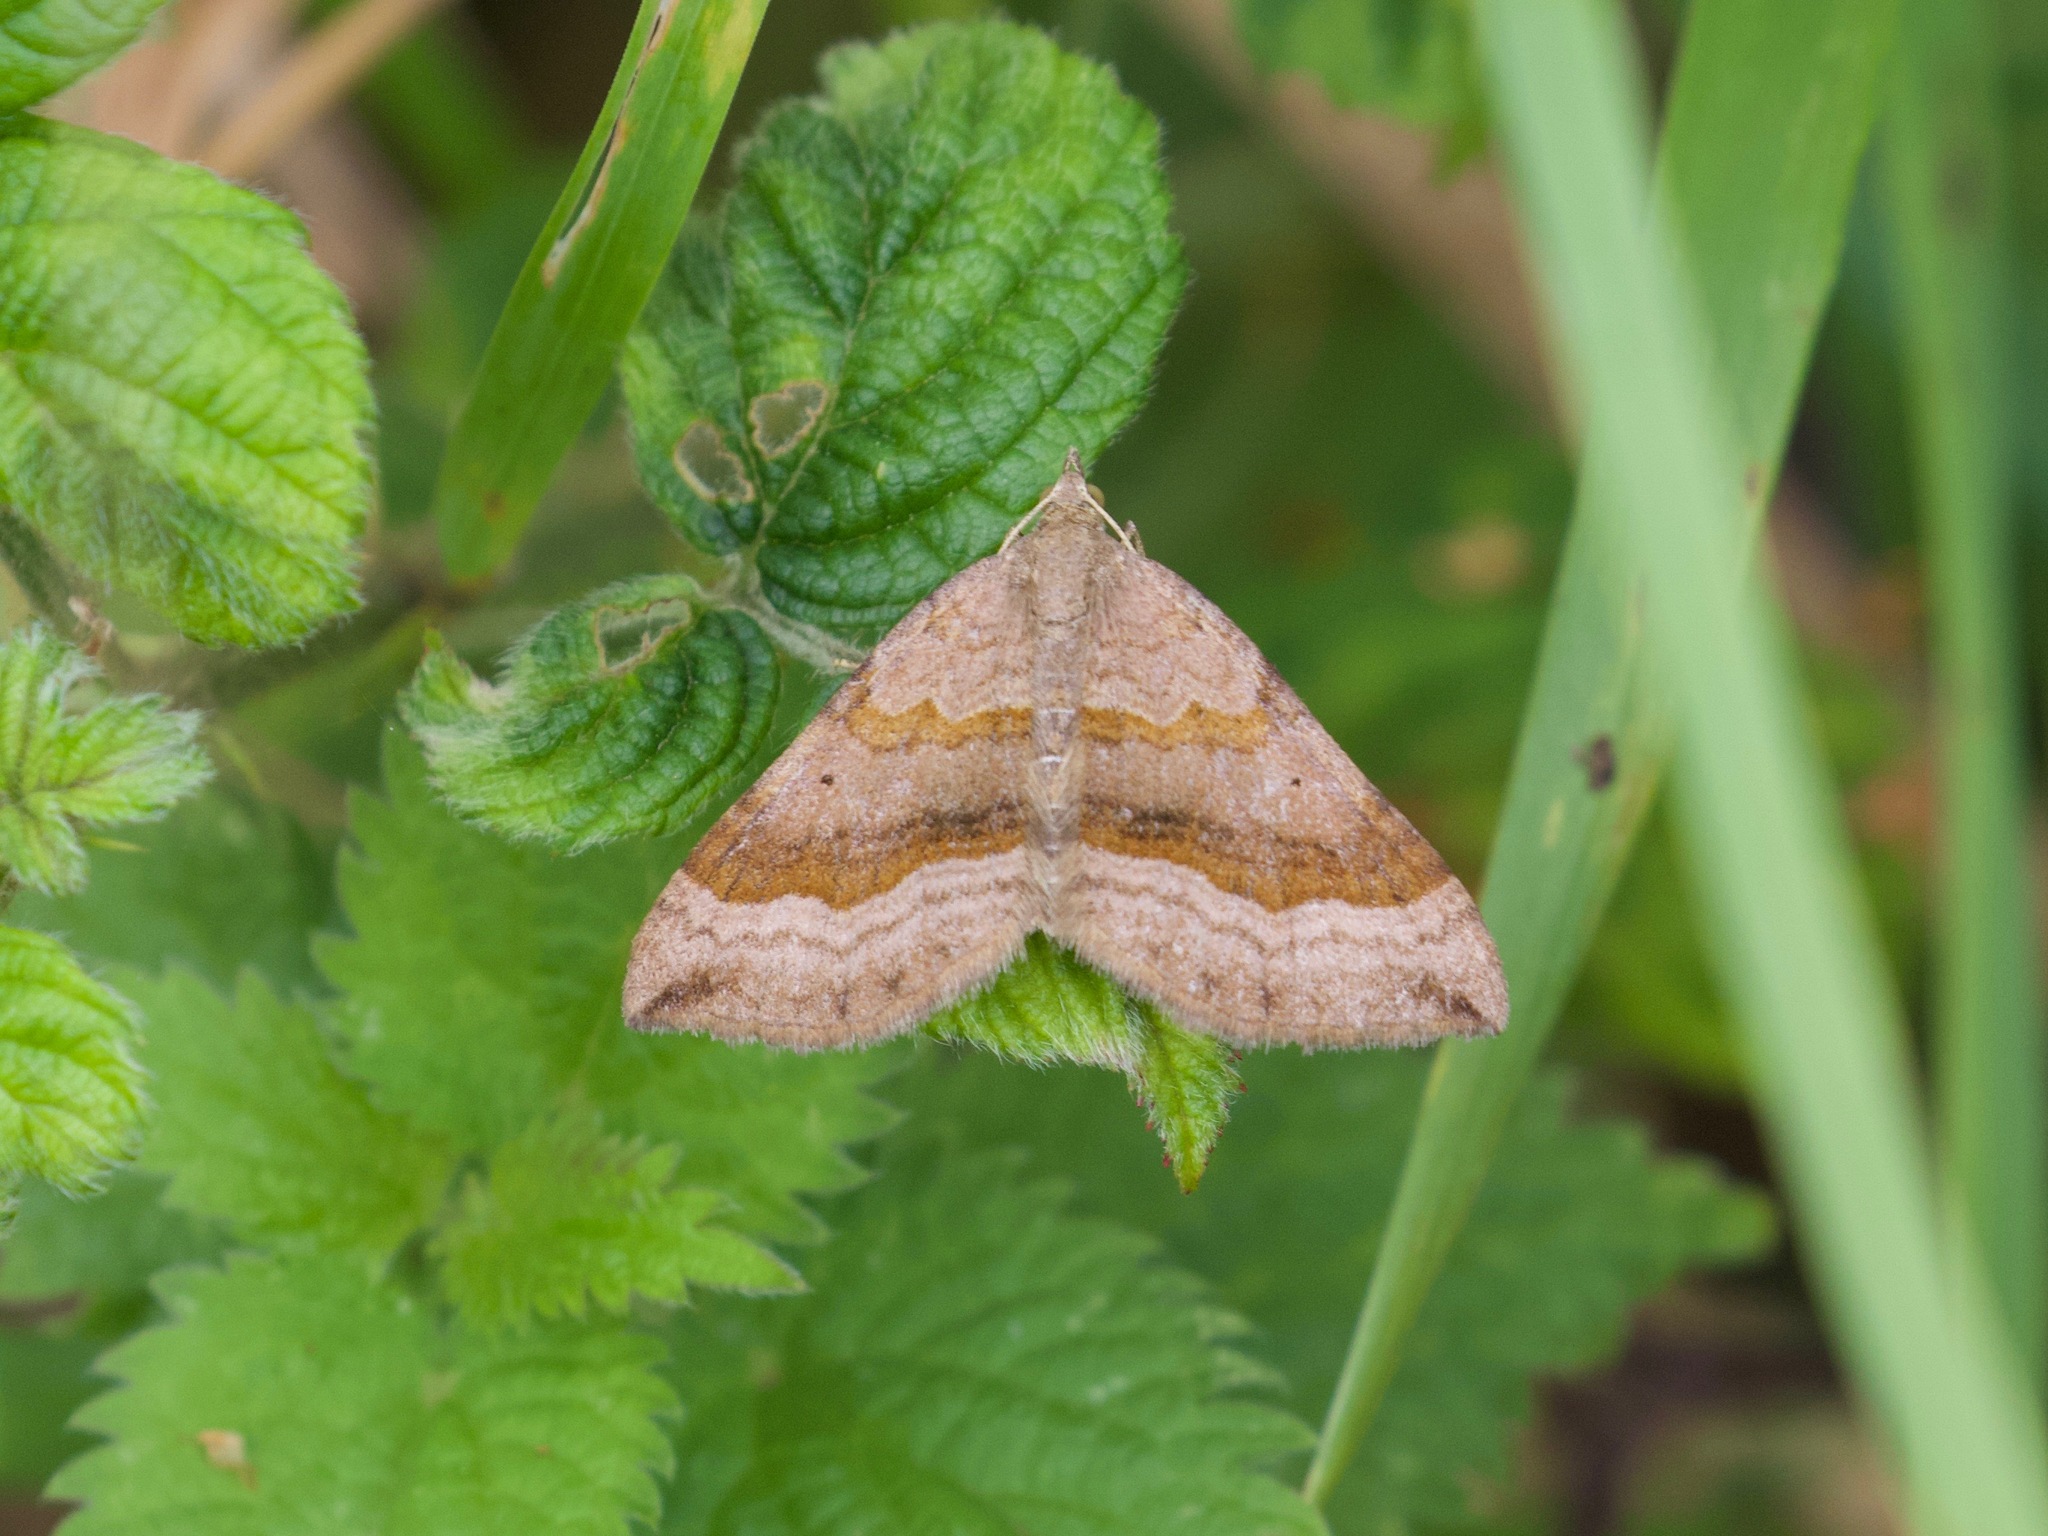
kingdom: Animalia
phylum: Arthropoda
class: Insecta
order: Lepidoptera
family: Geometridae
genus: Scotopteryx
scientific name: Scotopteryx chenopodiata
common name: Shaded broad-bar
